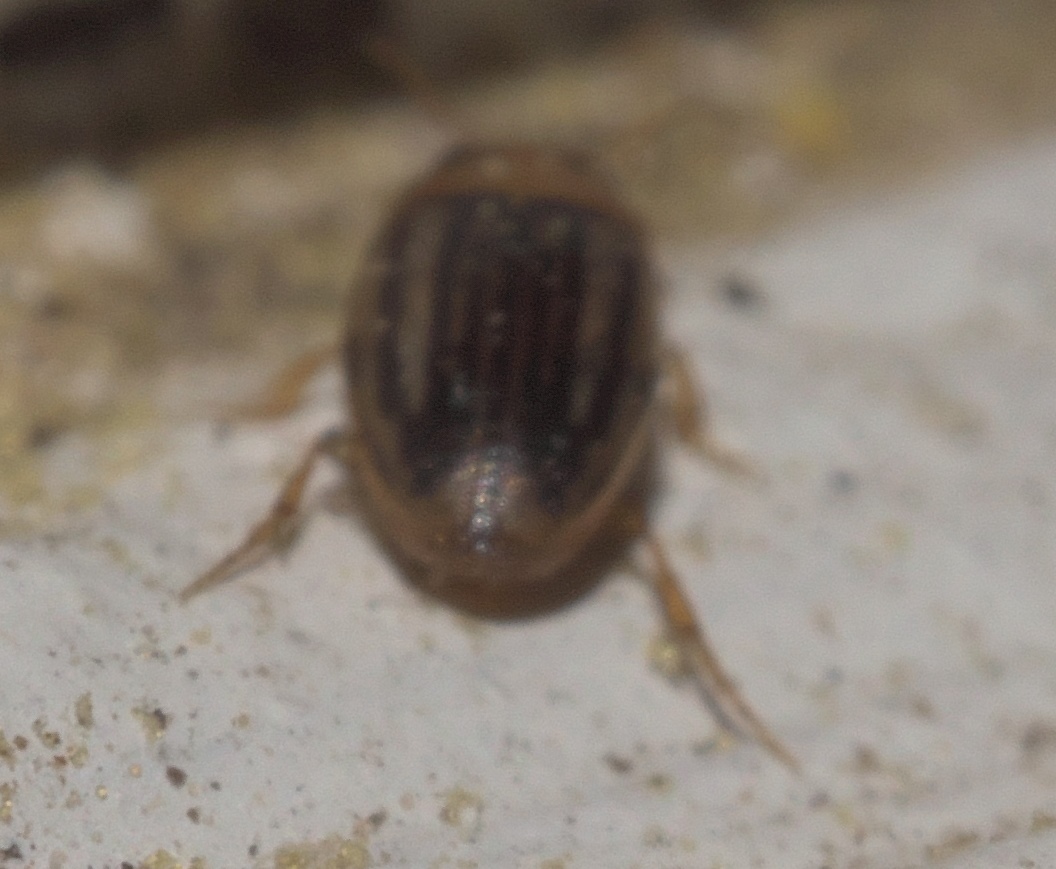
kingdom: Animalia
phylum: Arthropoda
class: Insecta
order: Coleoptera
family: Dytiscidae
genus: Neobidessus
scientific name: Neobidessus pullus
